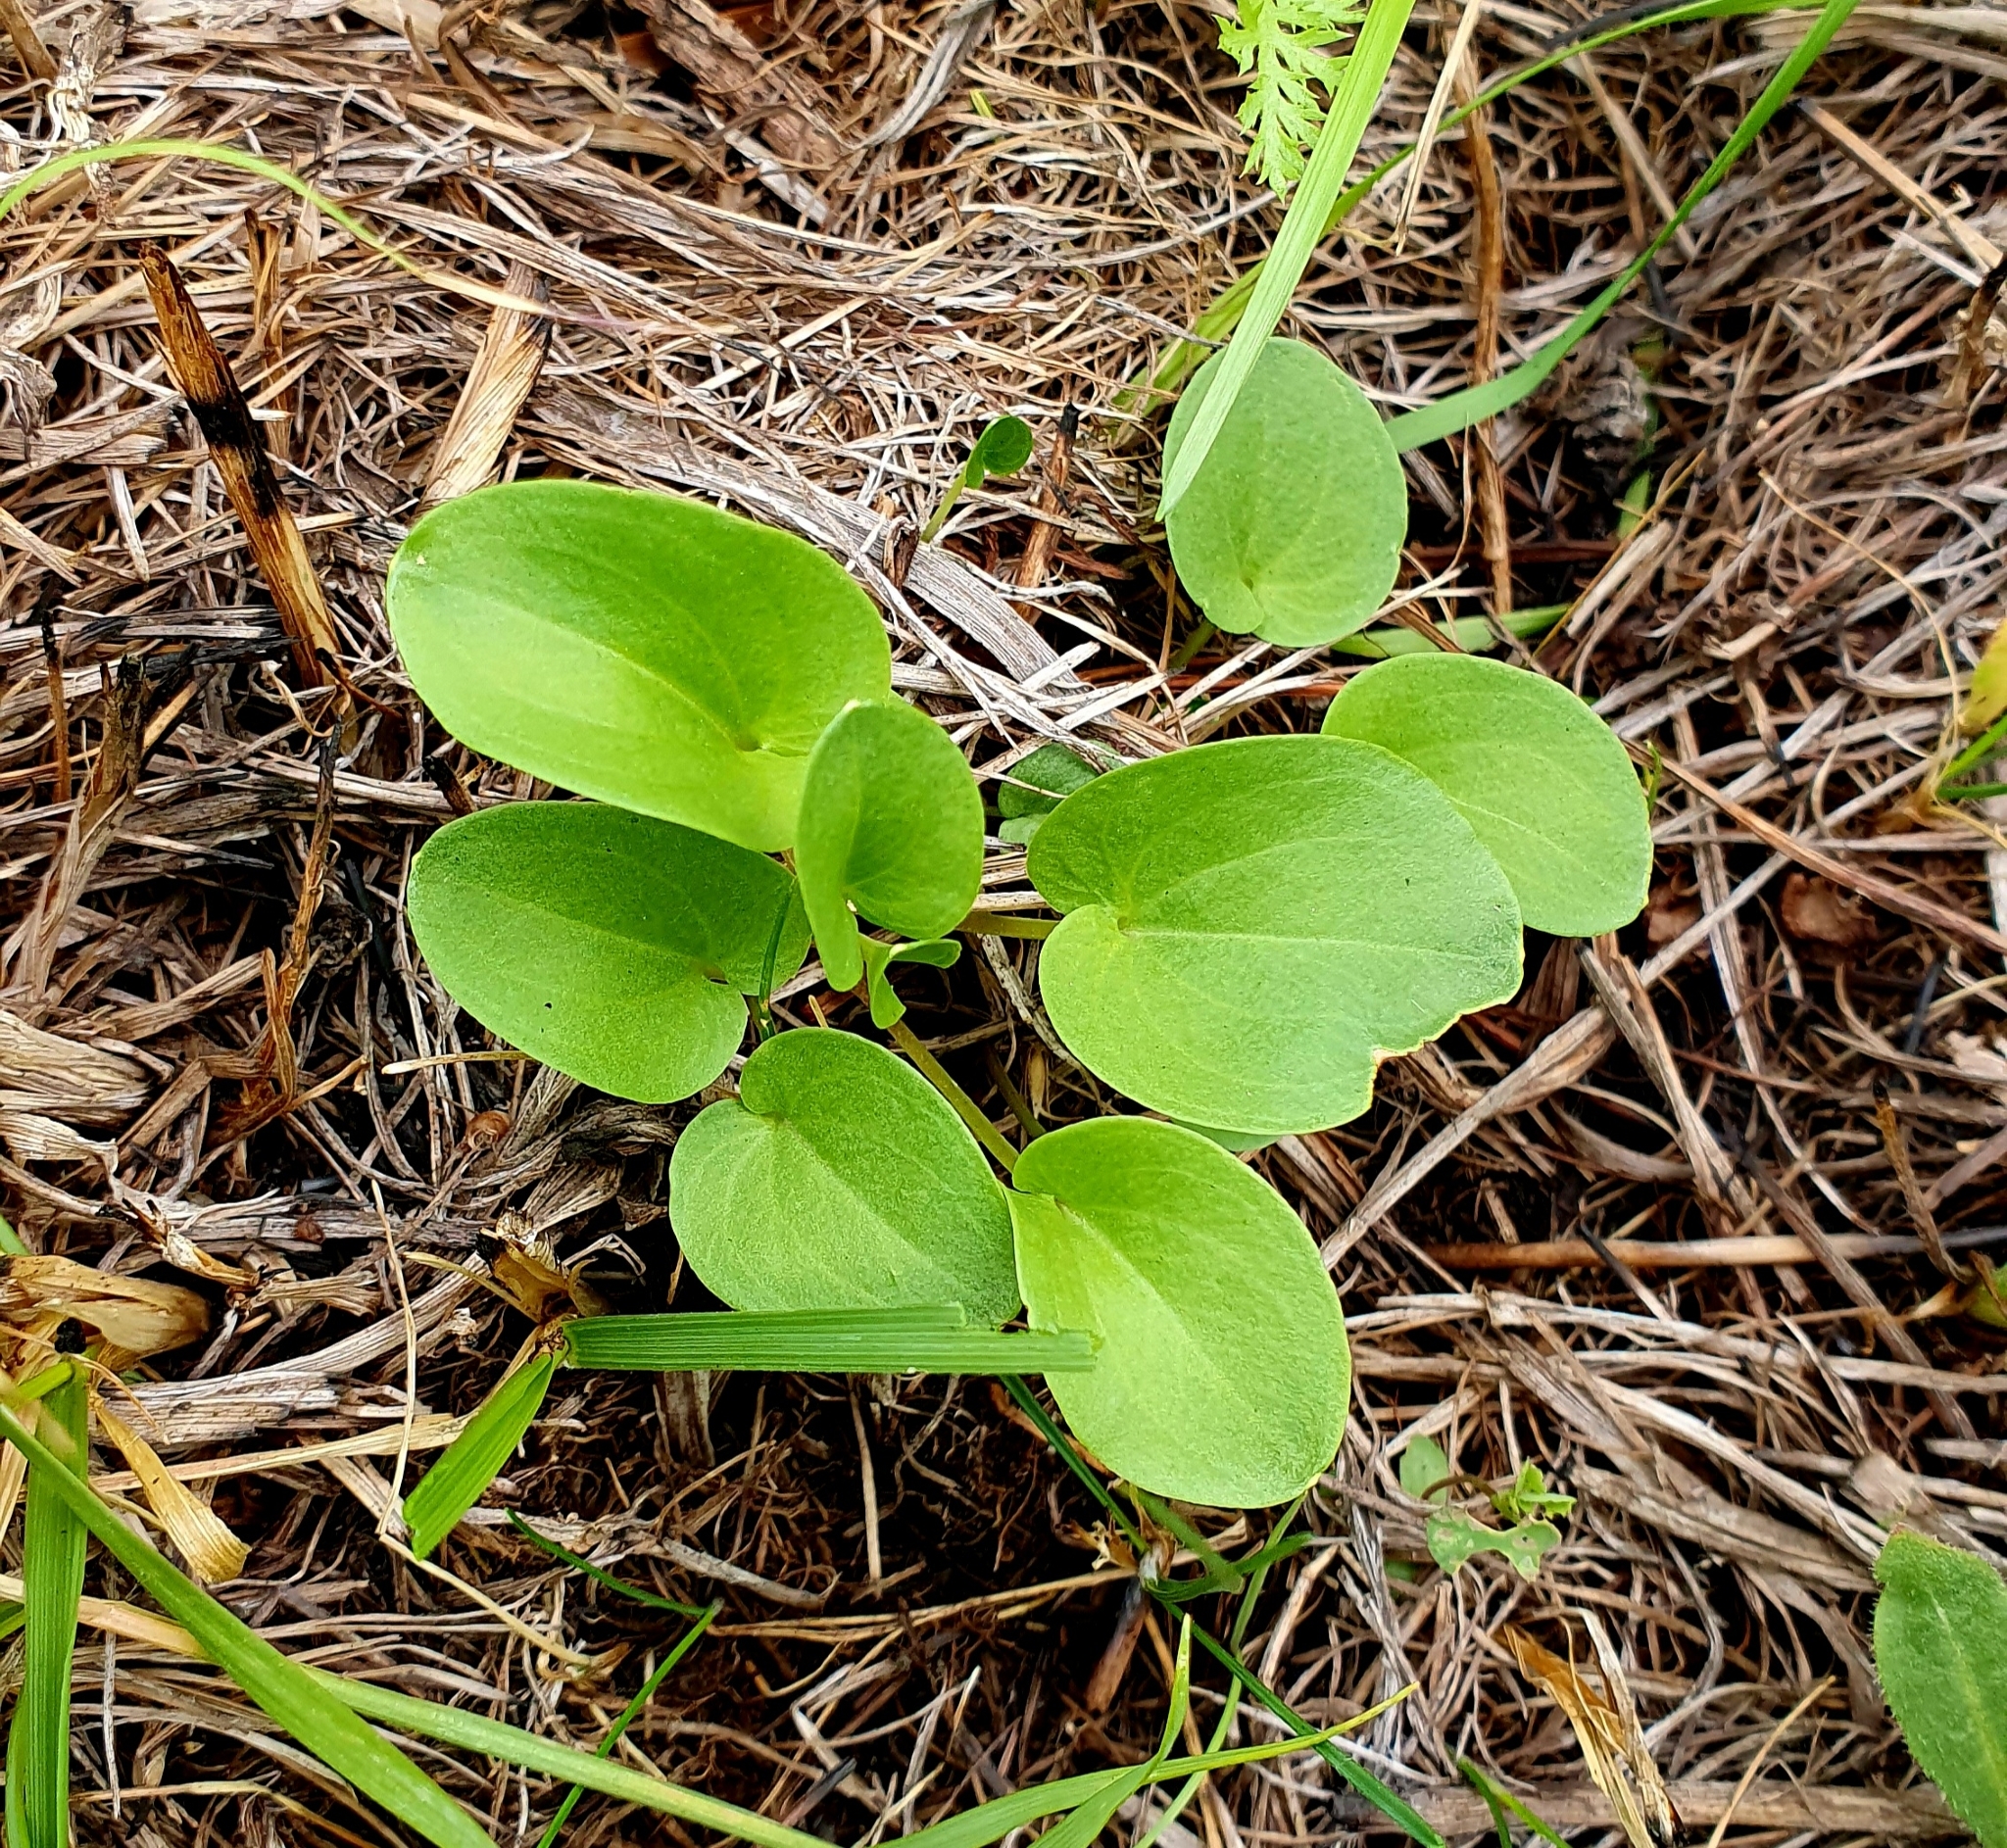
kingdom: Plantae
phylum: Tracheophyta
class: Magnoliopsida
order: Celastrales
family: Parnassiaceae
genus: Parnassia
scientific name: Parnassia palustris
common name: Grass-of-parnassus
